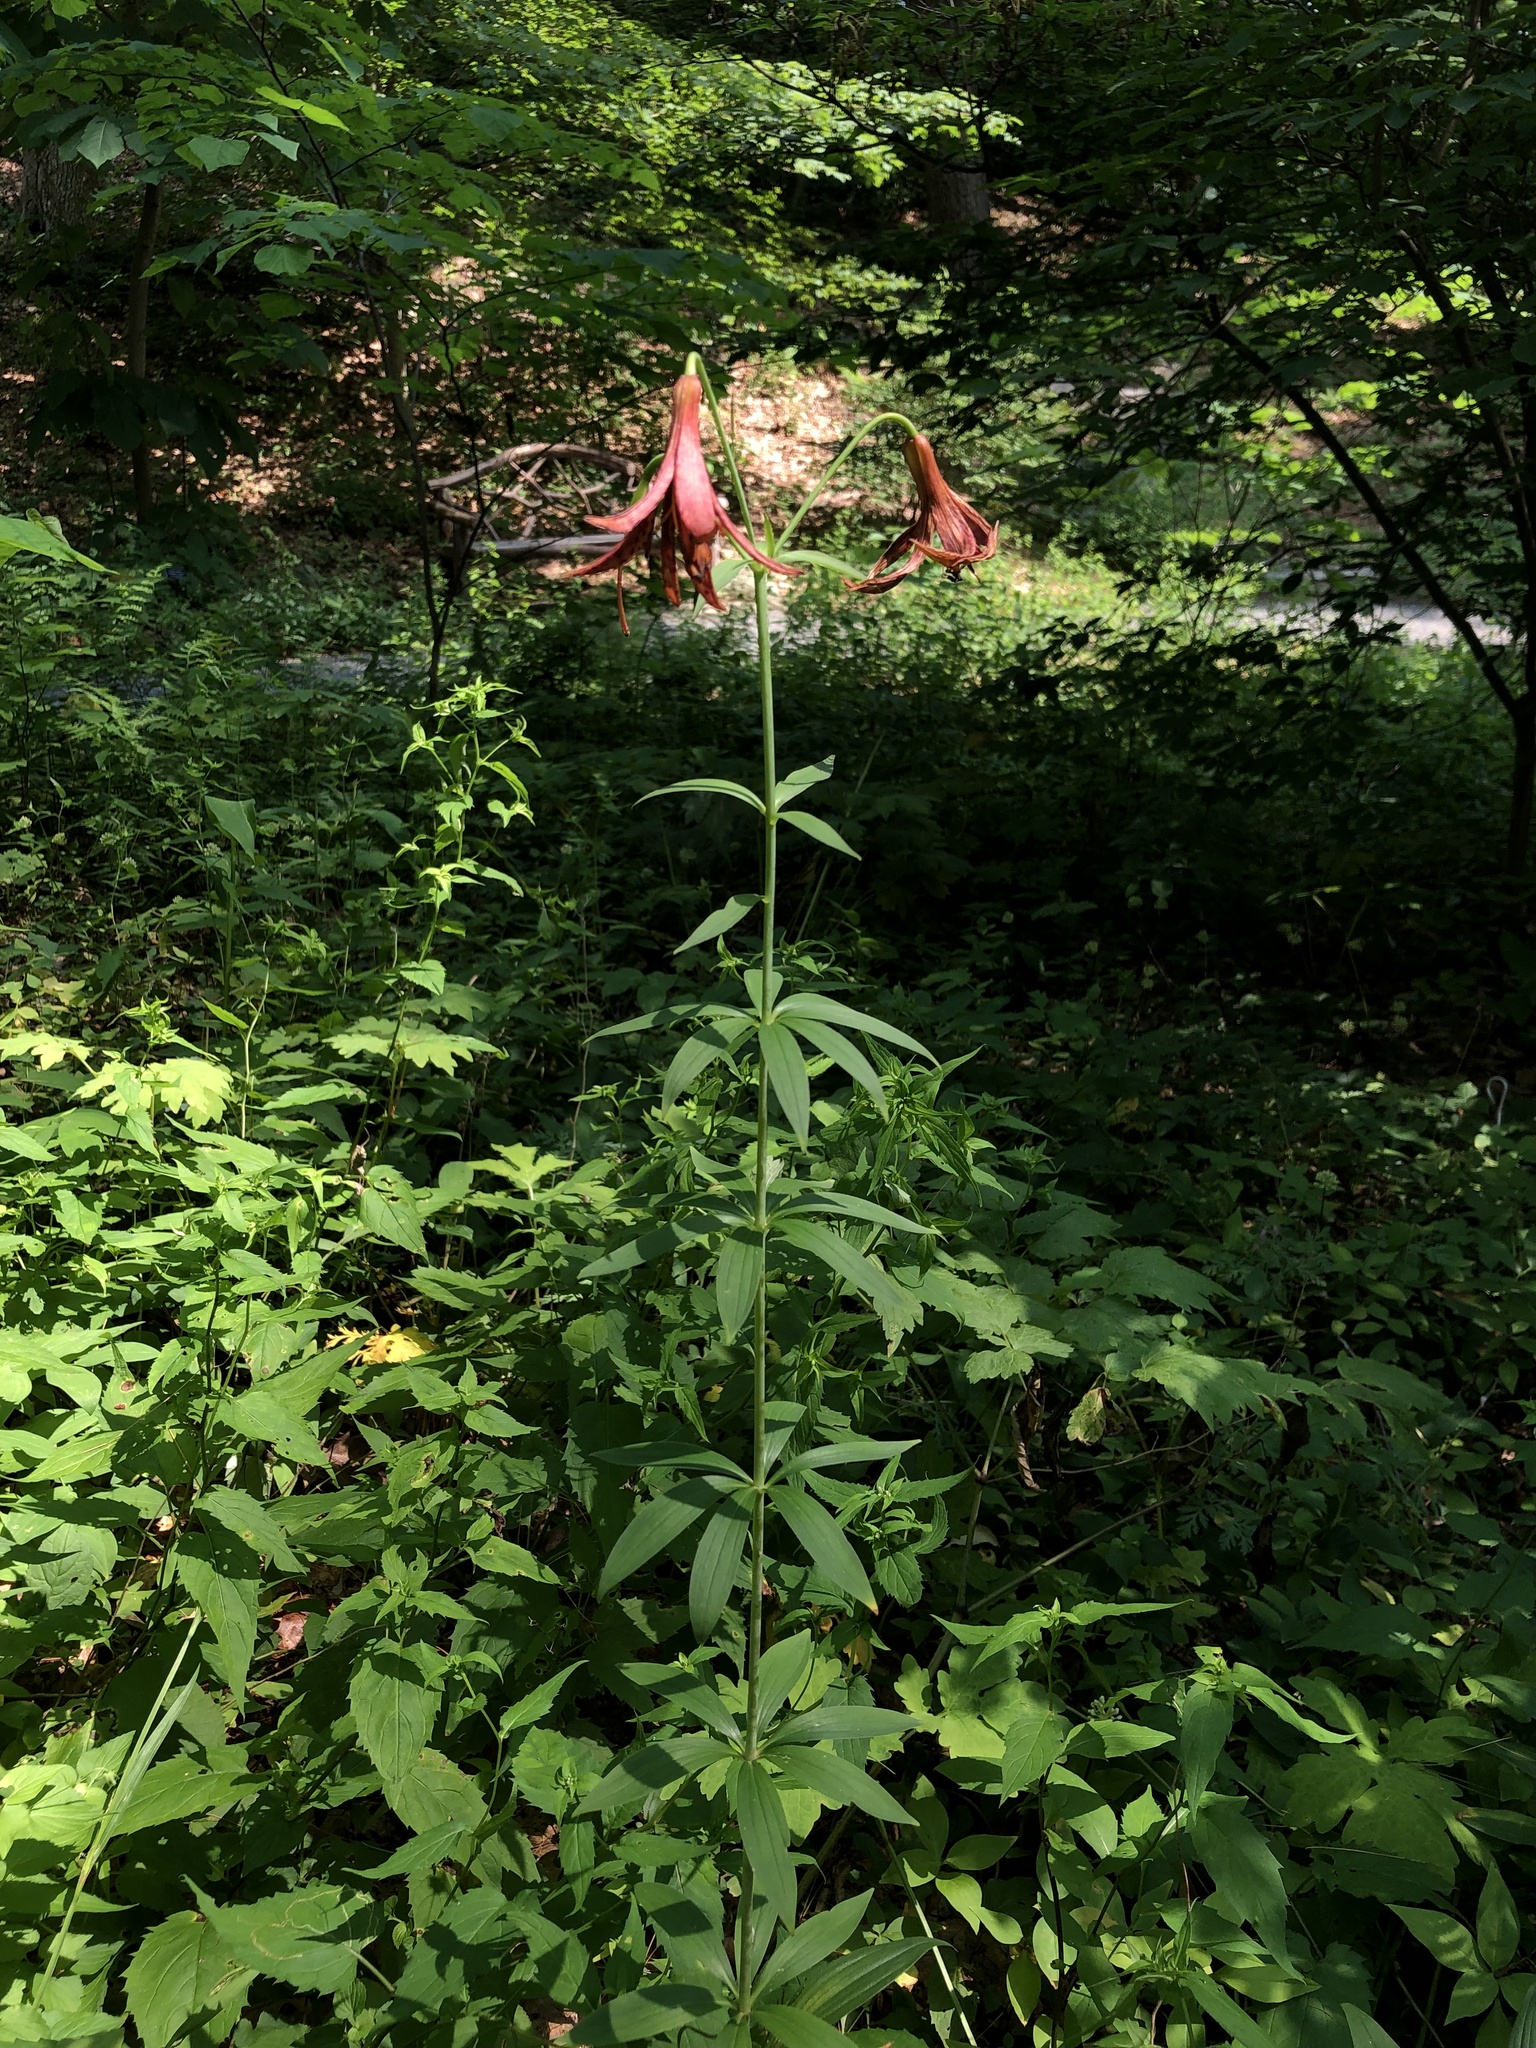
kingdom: Plantae
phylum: Tracheophyta
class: Liliopsida
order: Liliales
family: Liliaceae
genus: Lilium
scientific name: Lilium canadense
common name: Canada lily
